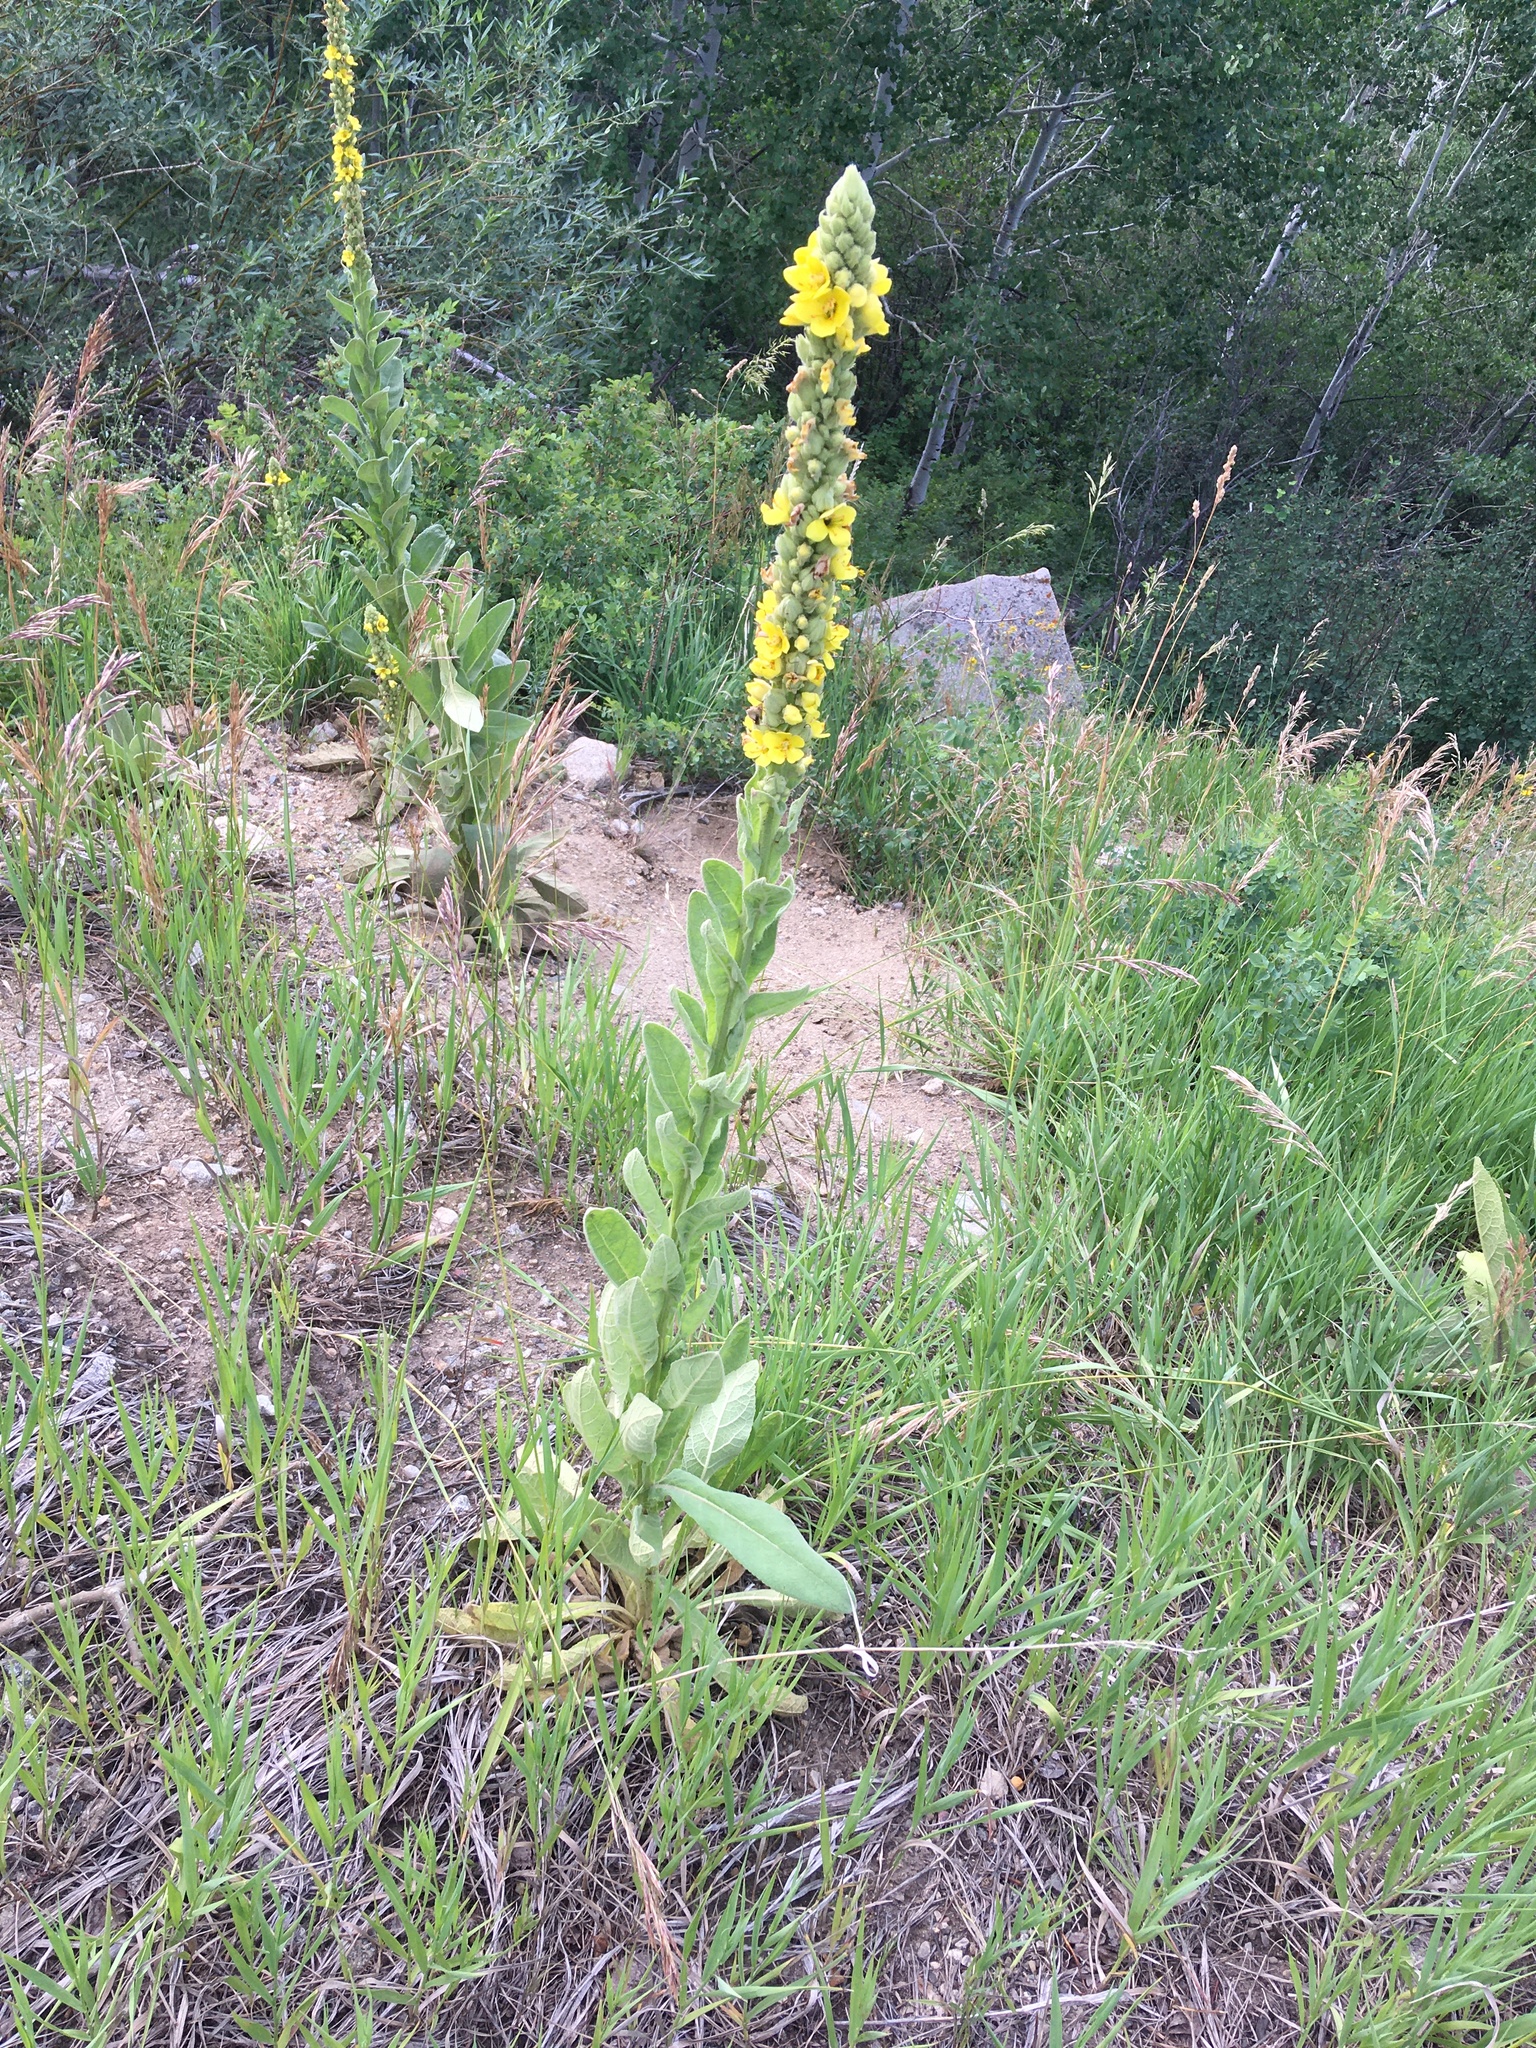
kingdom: Plantae
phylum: Tracheophyta
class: Magnoliopsida
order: Lamiales
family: Scrophulariaceae
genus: Verbascum
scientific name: Verbascum thapsus
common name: Common mullein
